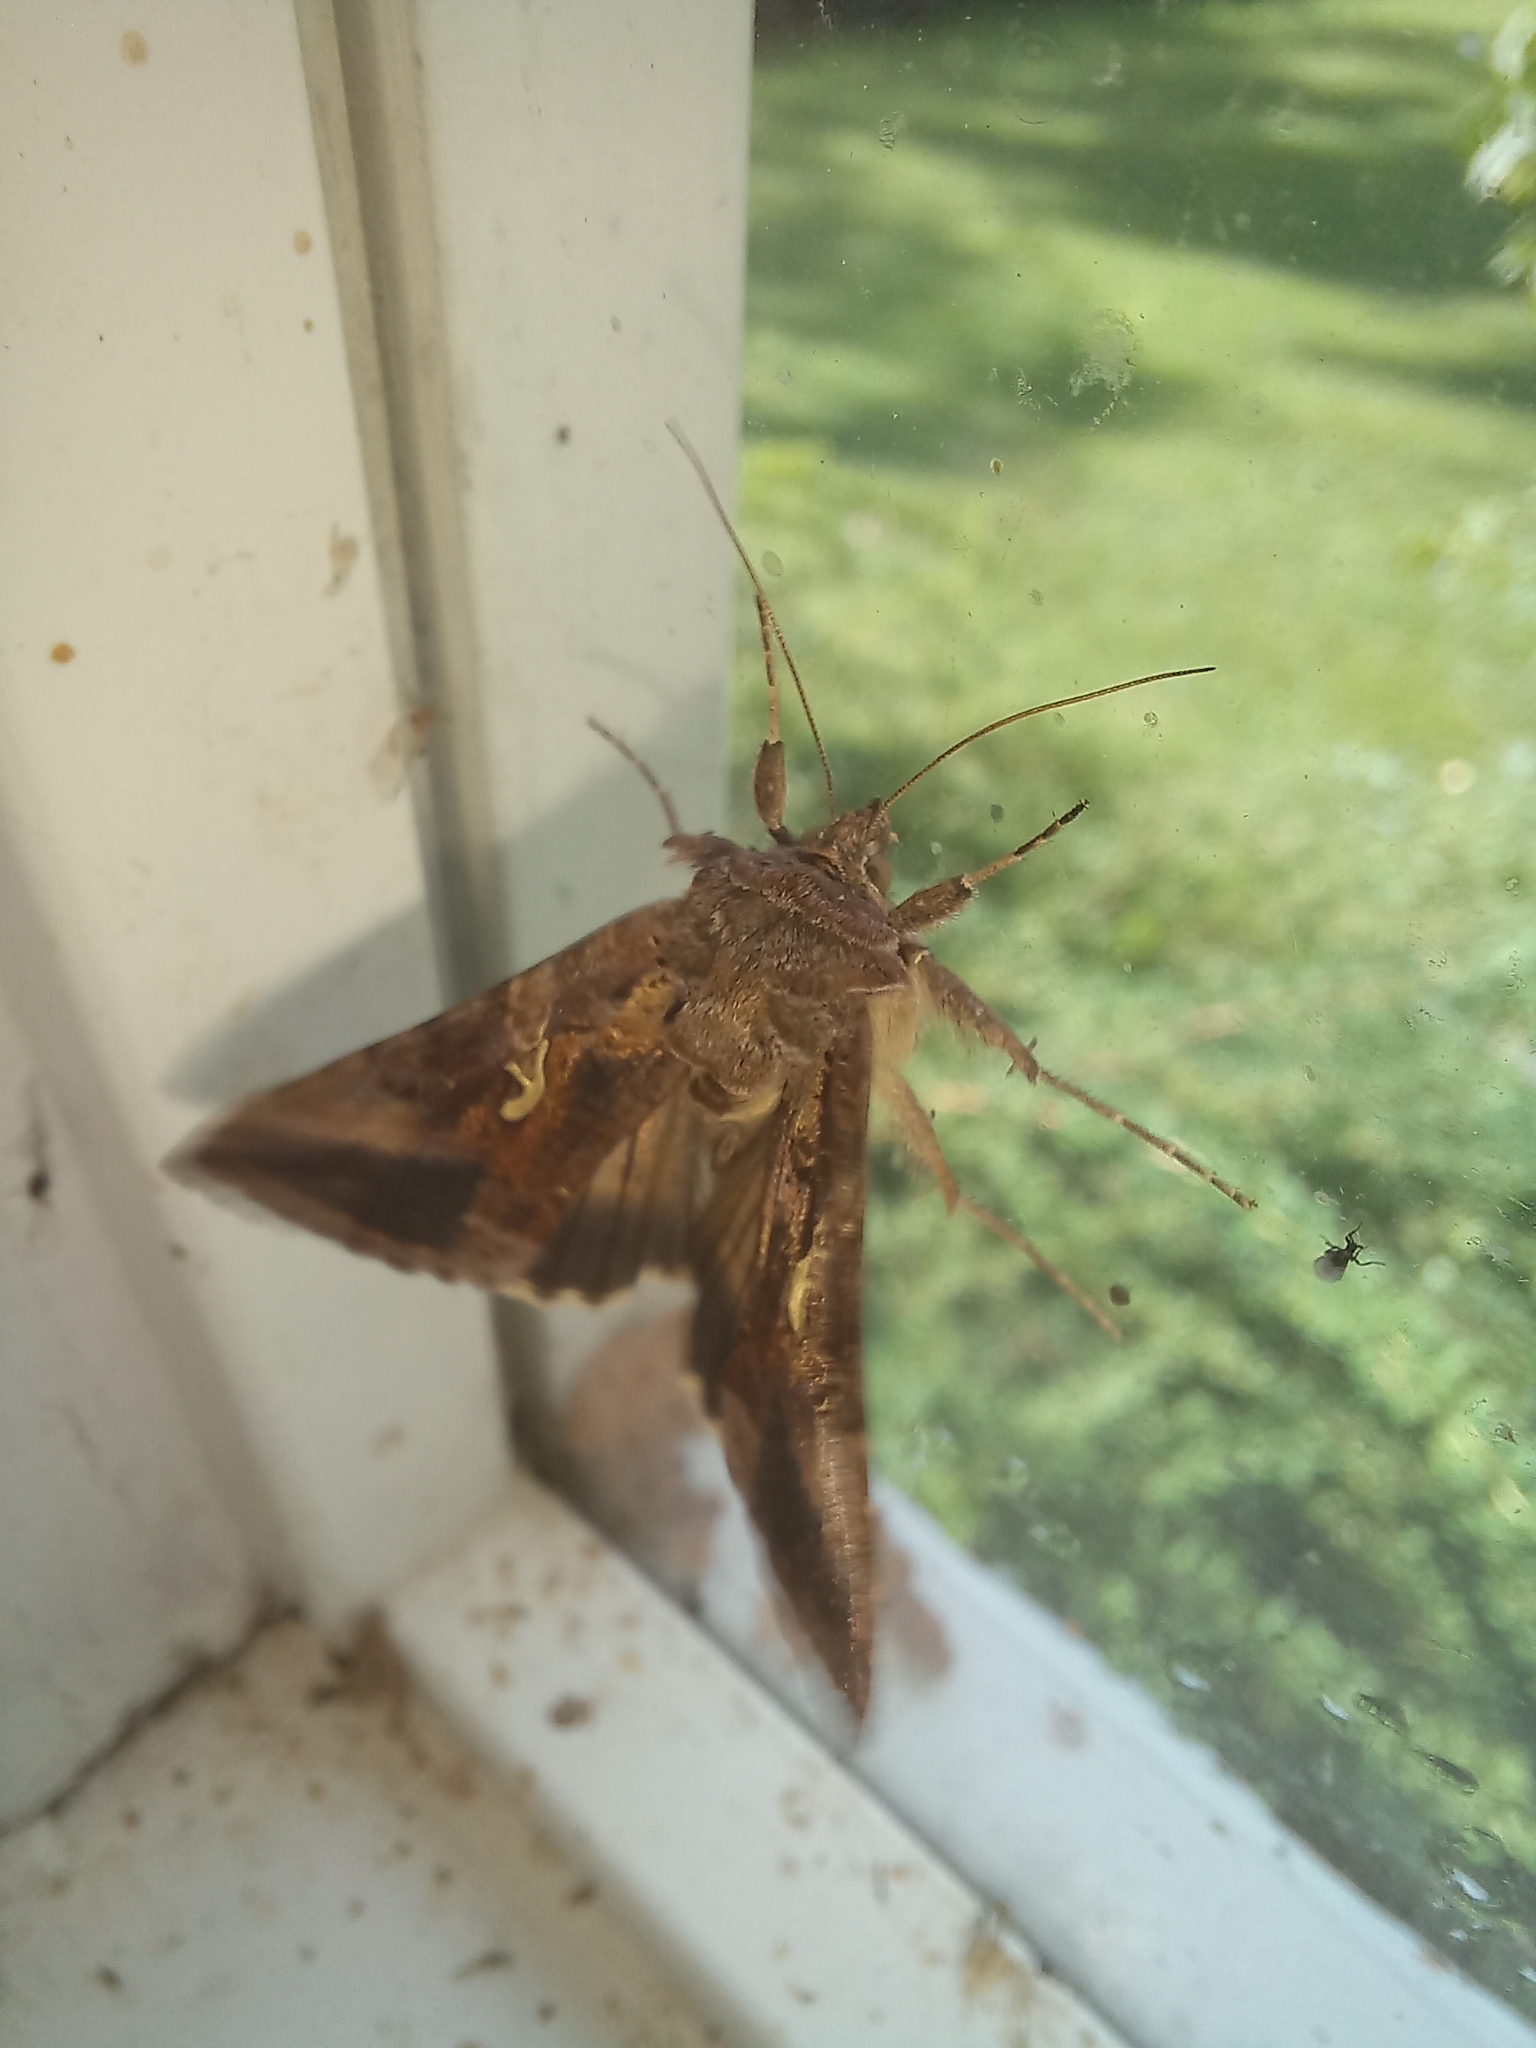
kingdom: Animalia
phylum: Arthropoda
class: Insecta
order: Lepidoptera
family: Noctuidae
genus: Autographa
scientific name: Autographa gamma
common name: Silver y
